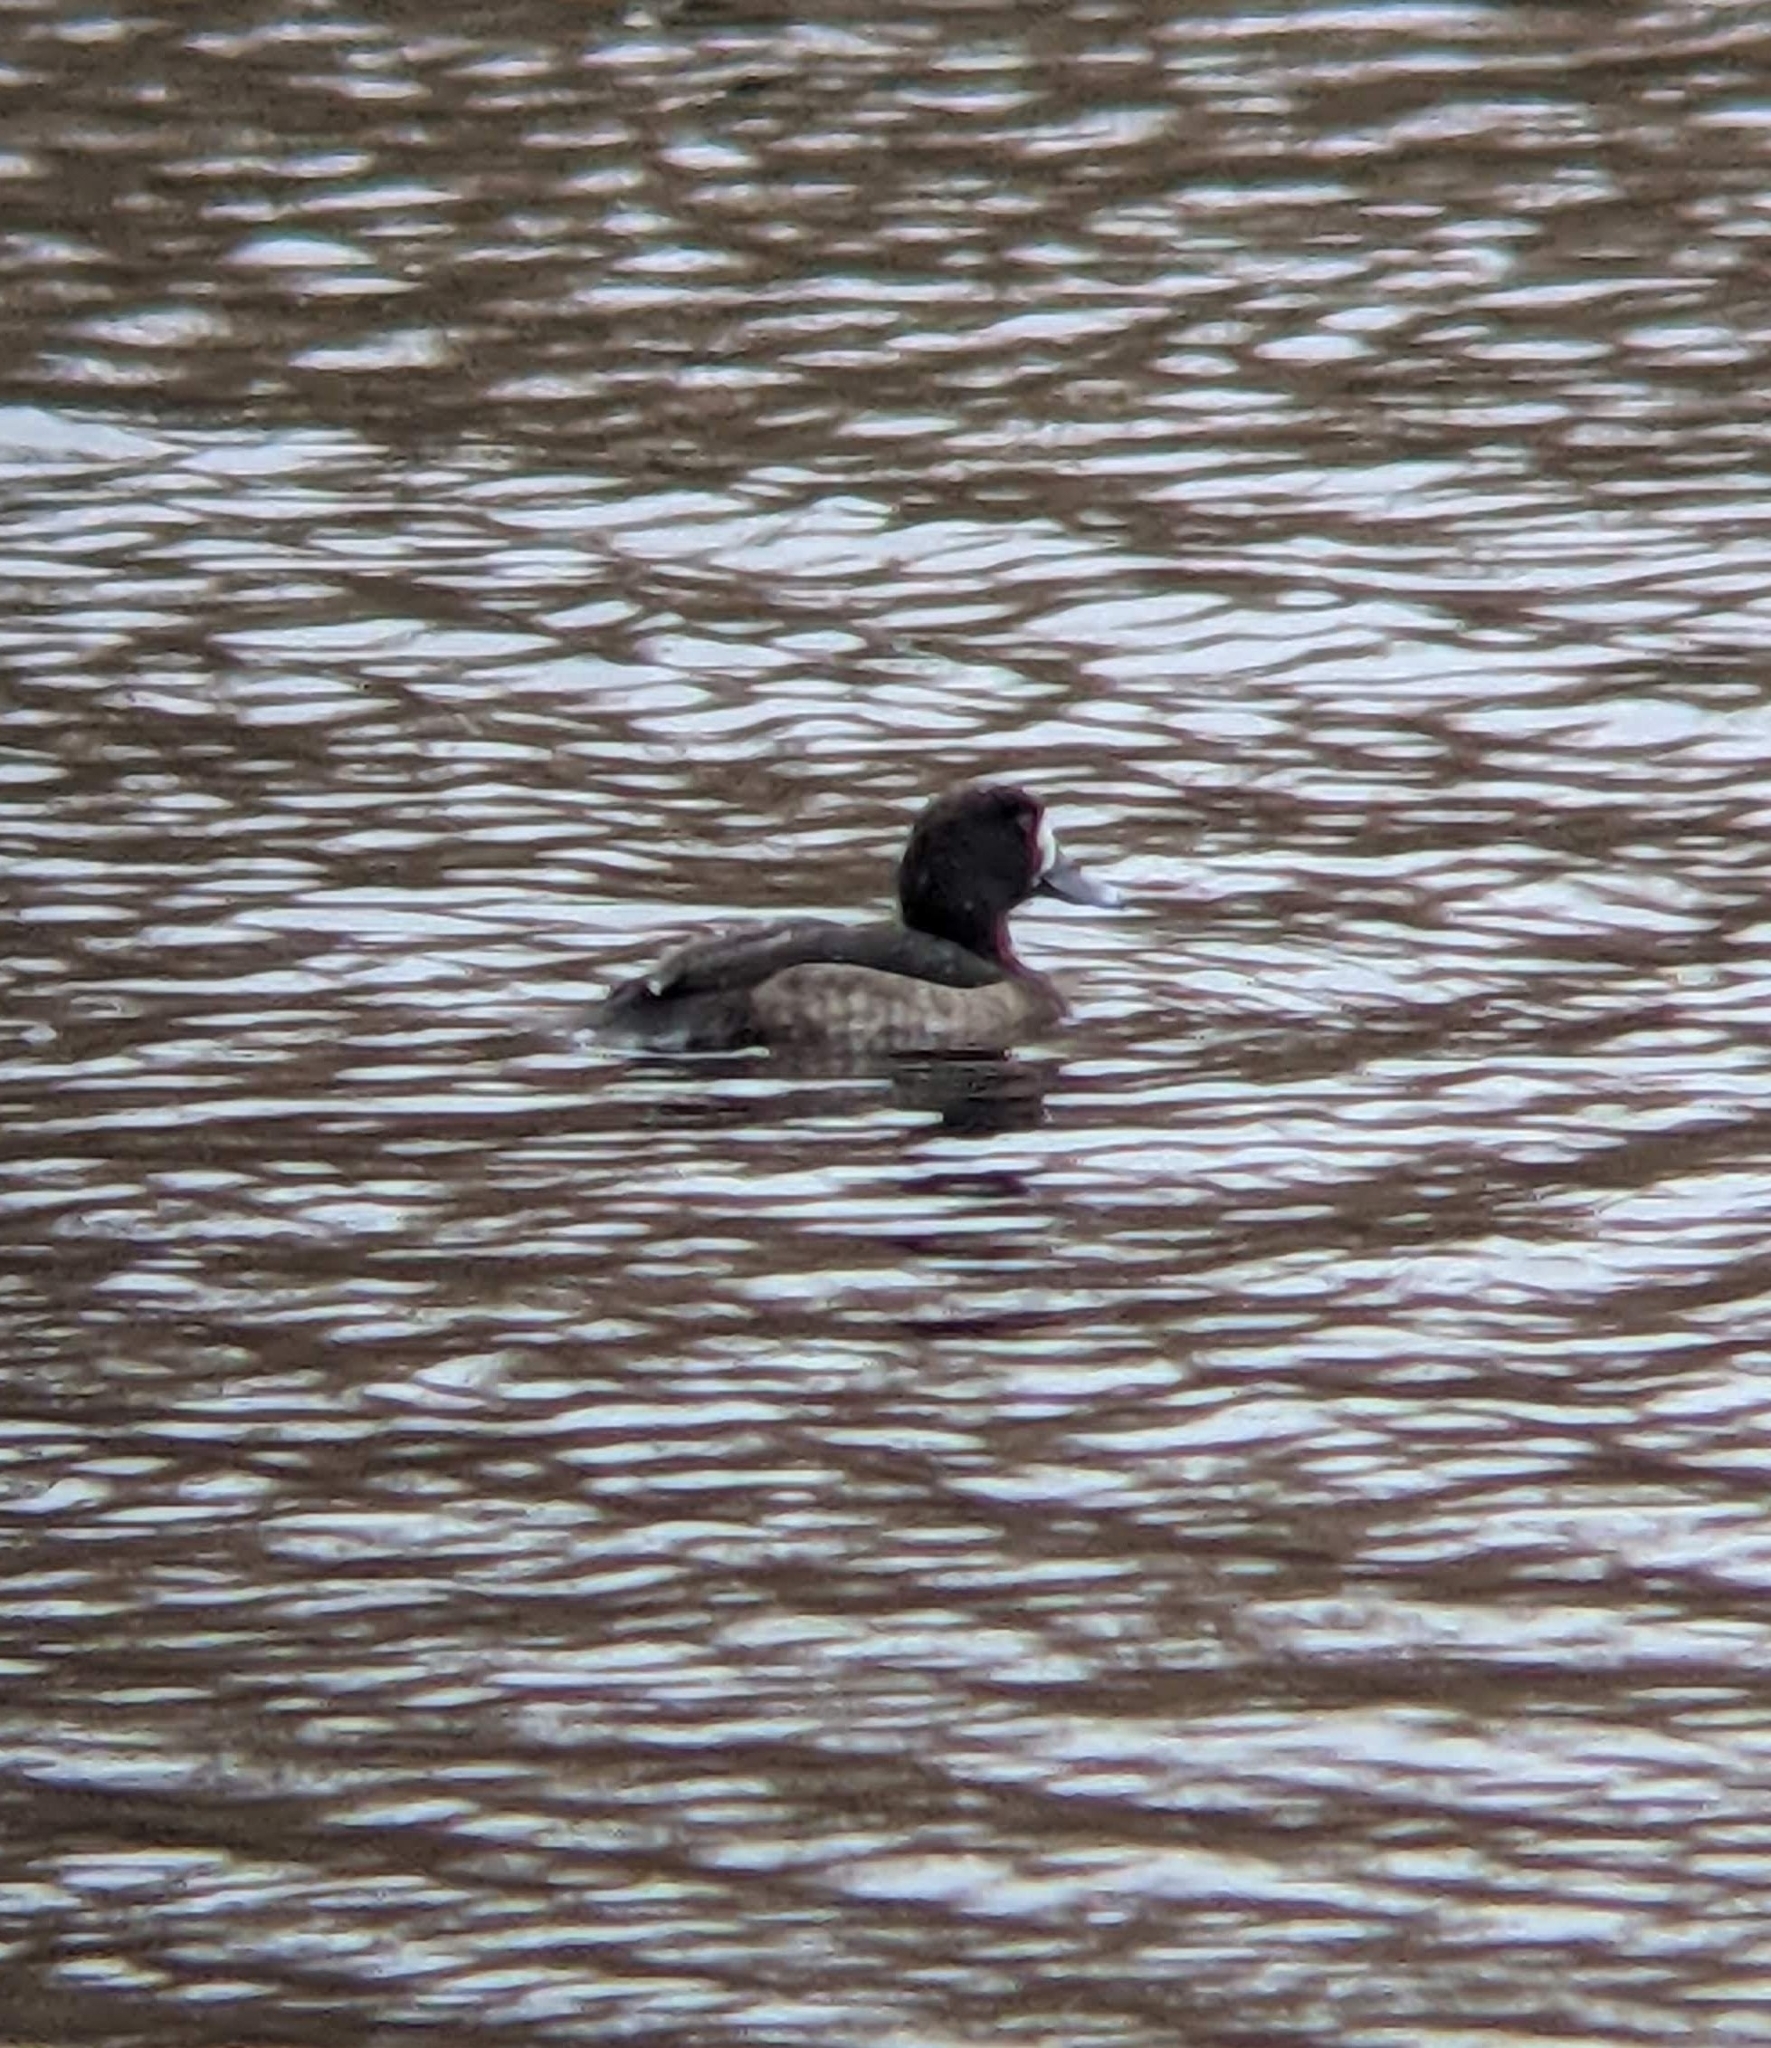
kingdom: Animalia
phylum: Chordata
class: Aves
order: Anseriformes
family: Anatidae
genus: Aythya
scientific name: Aythya fuligula
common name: Tufted duck
